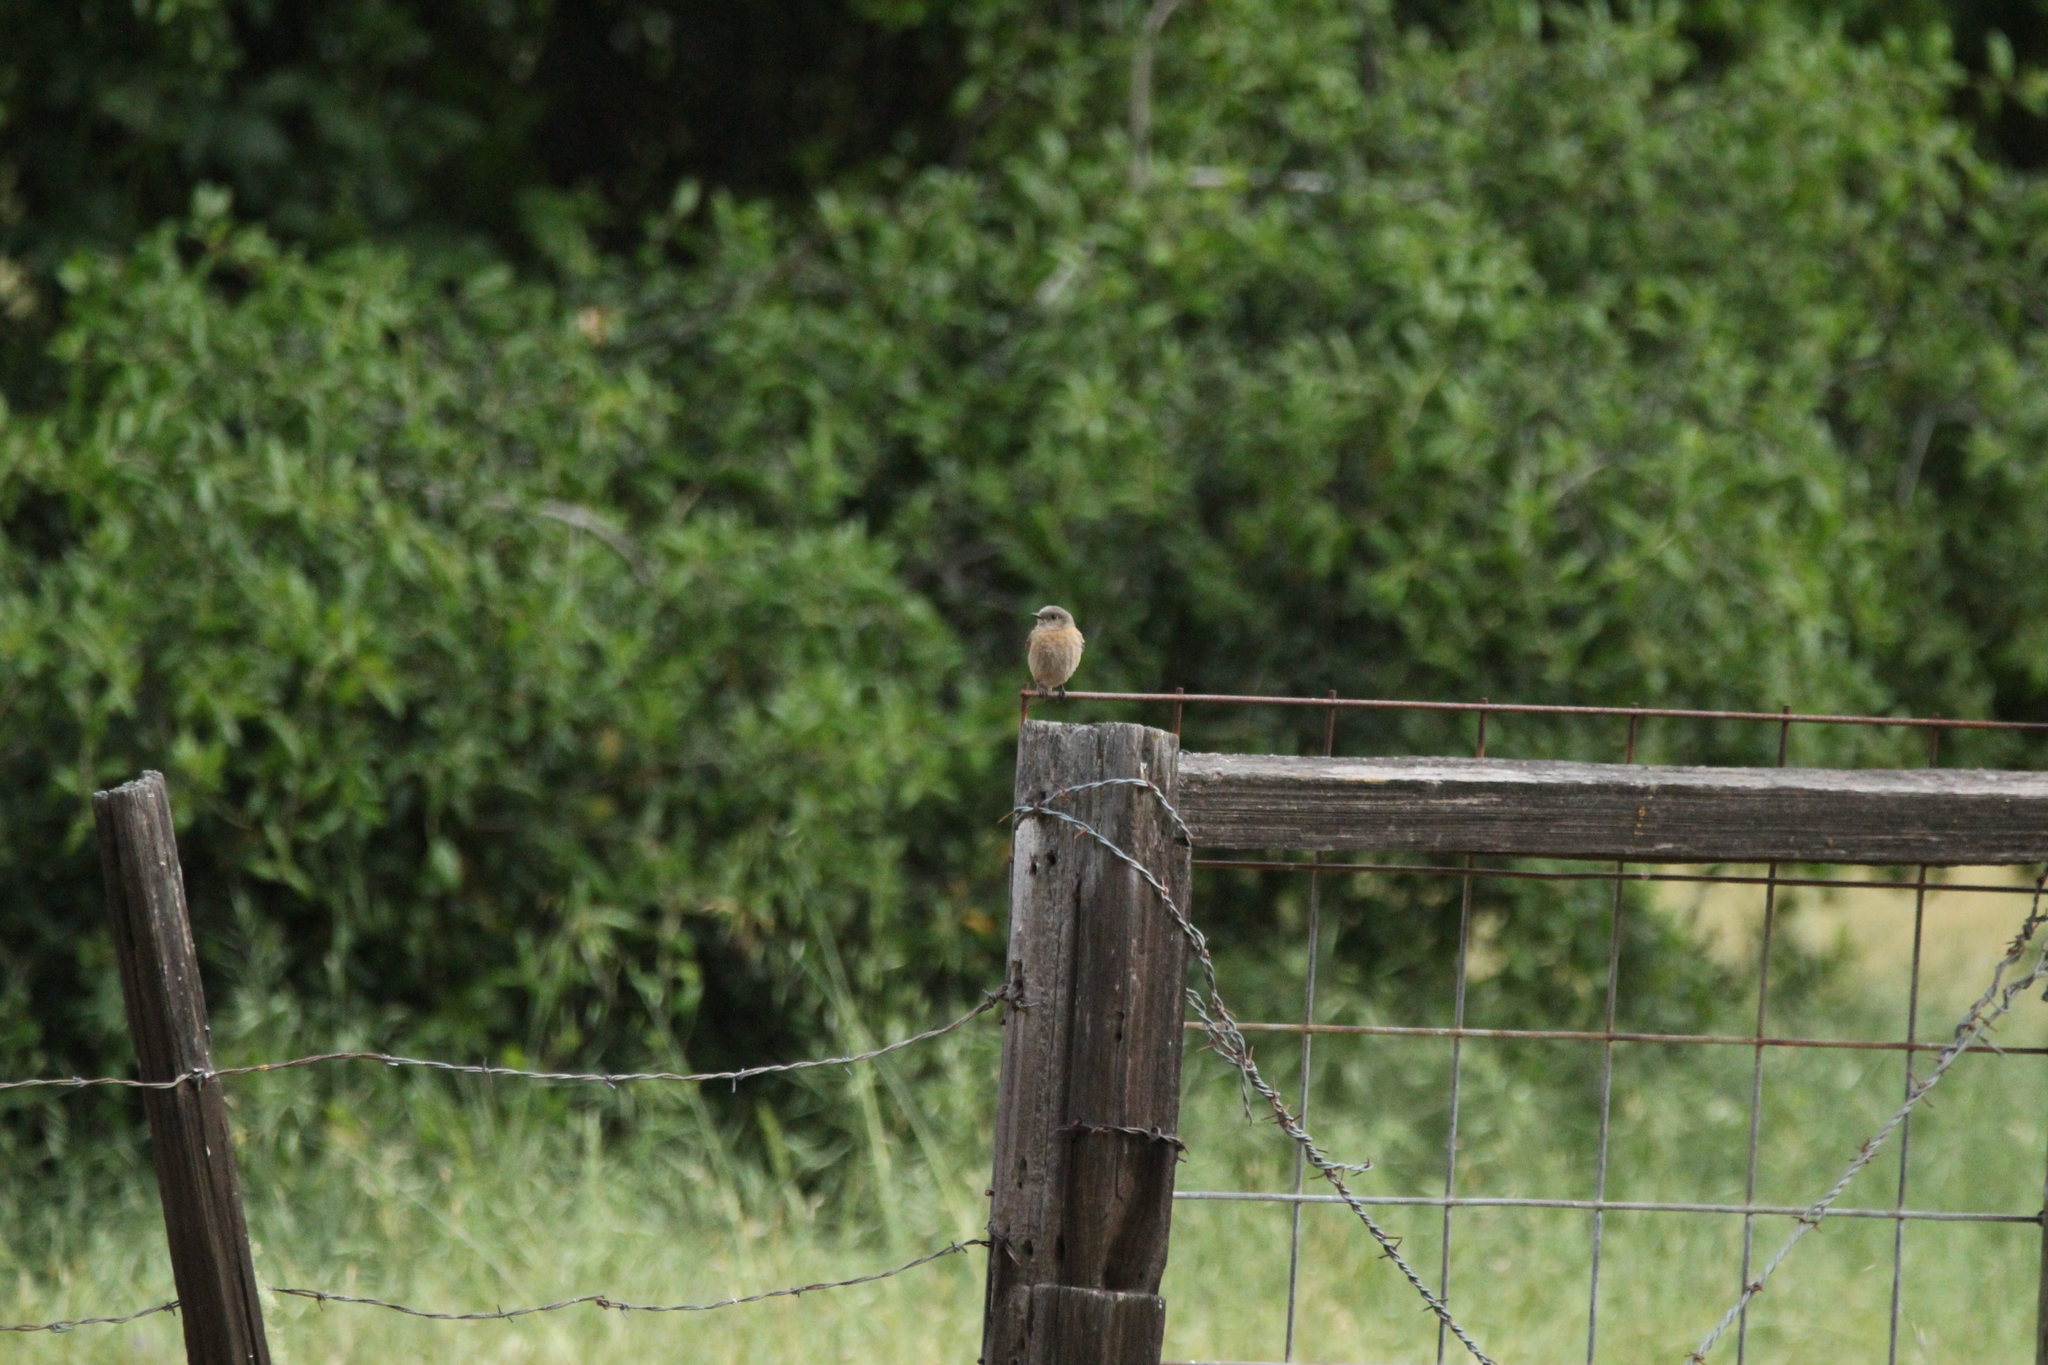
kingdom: Animalia
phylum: Chordata
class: Aves
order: Passeriformes
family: Turdidae
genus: Sialia
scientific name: Sialia mexicana
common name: Western bluebird
